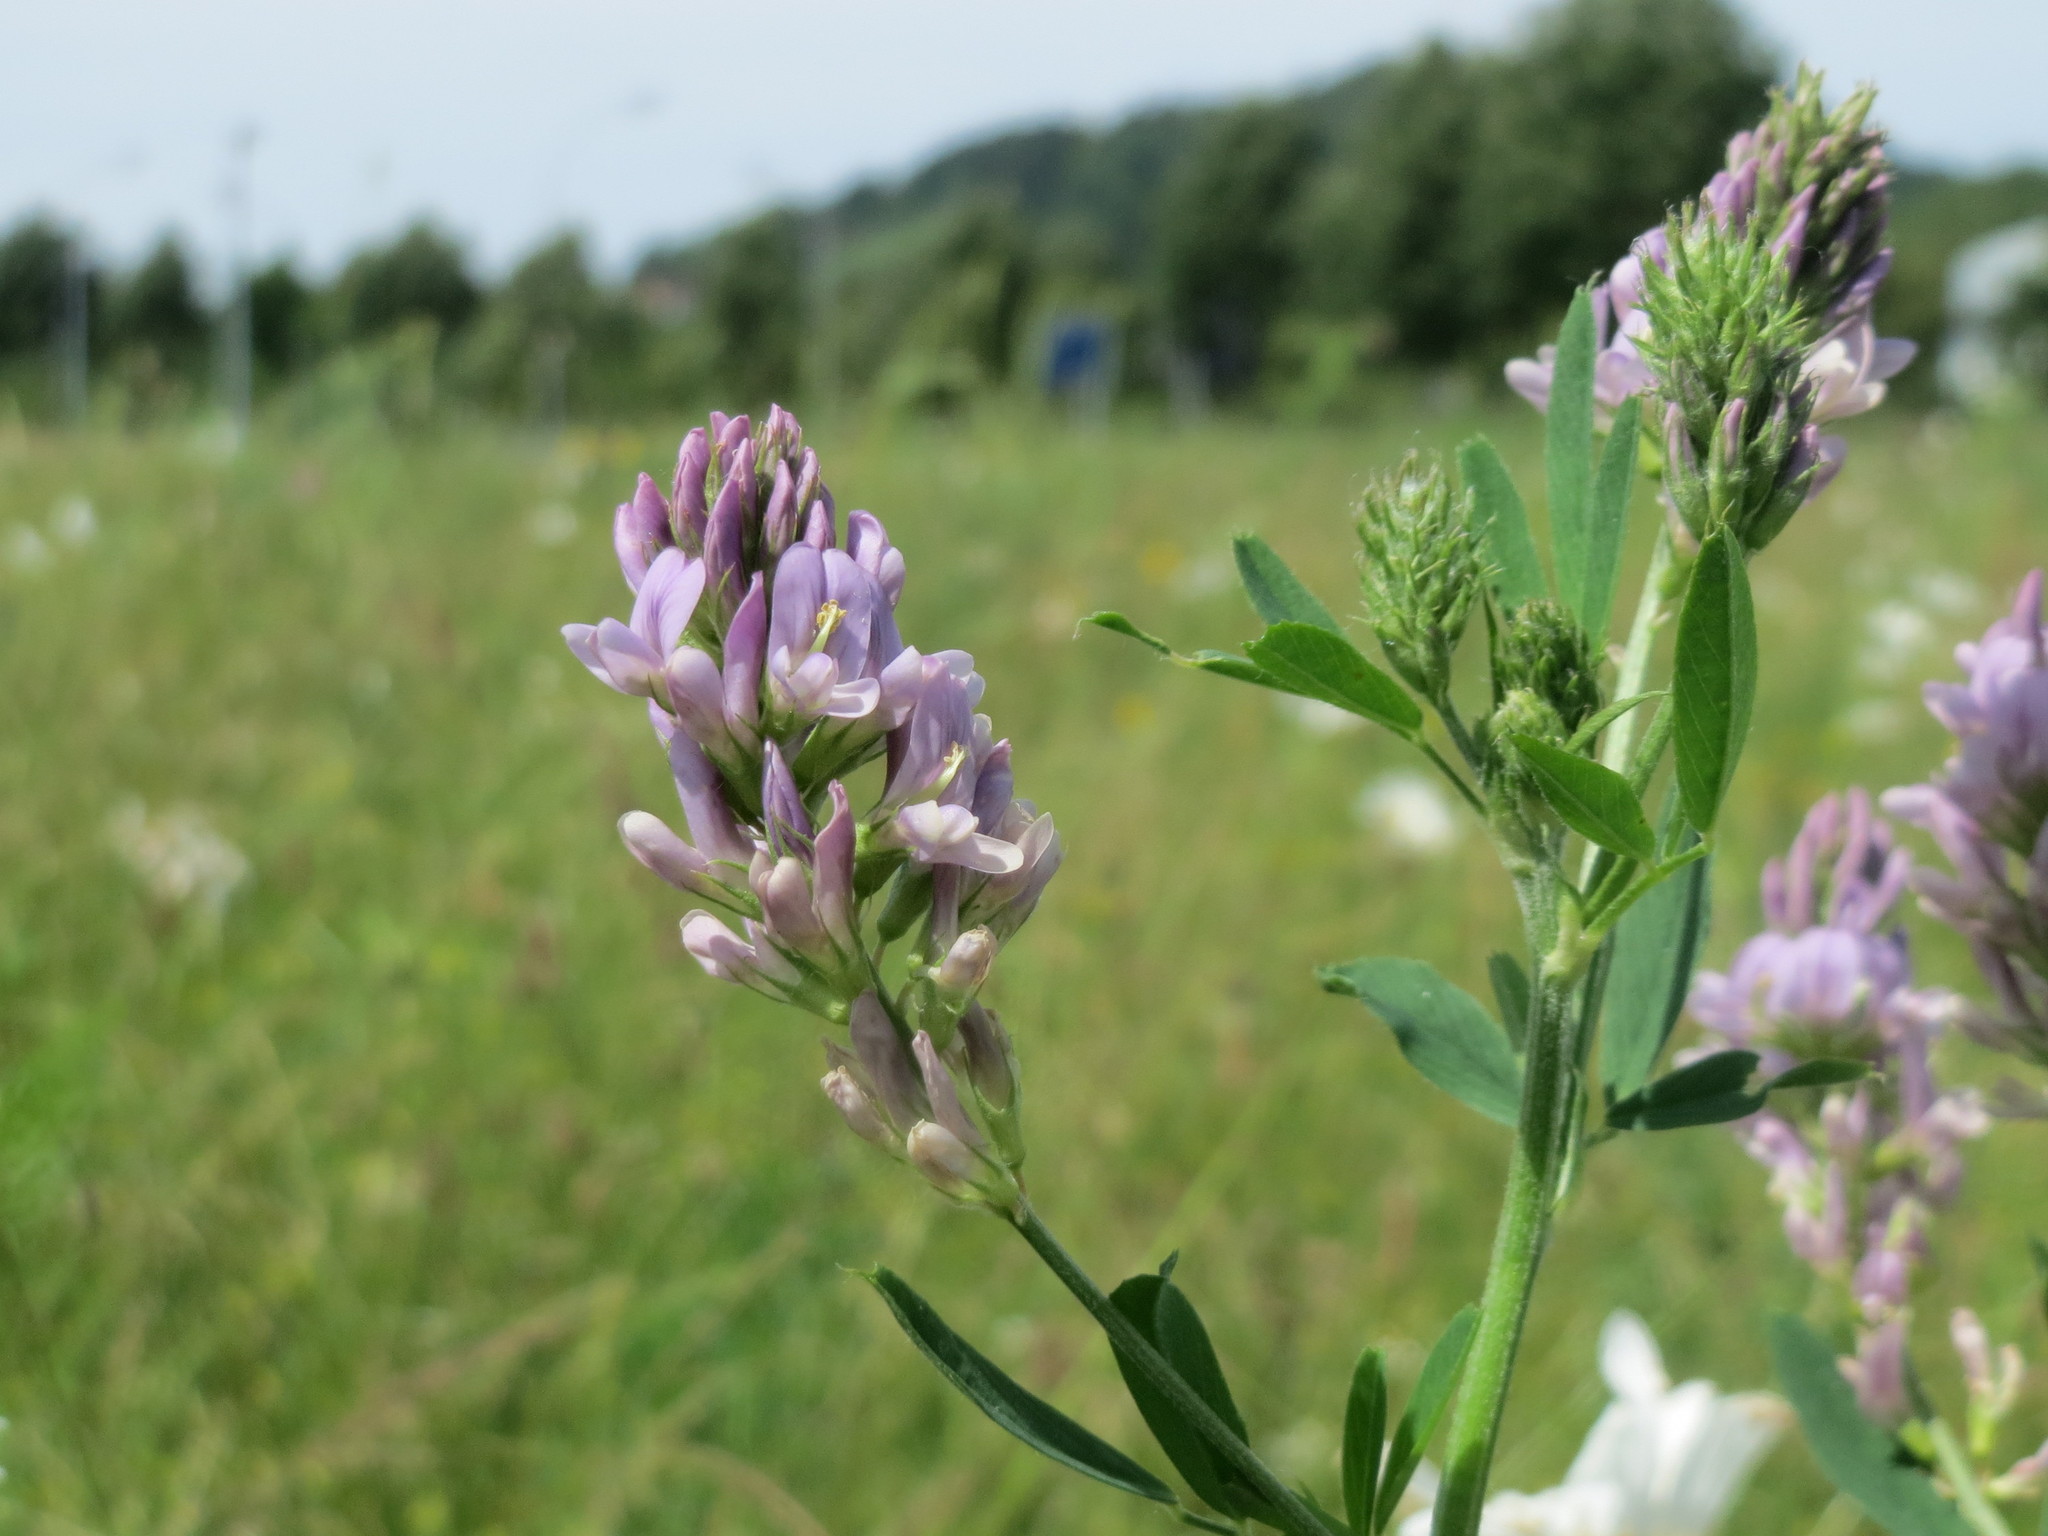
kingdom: Plantae
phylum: Tracheophyta
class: Magnoliopsida
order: Fabales
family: Fabaceae
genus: Medicago
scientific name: Medicago sativa
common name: Alfalfa
